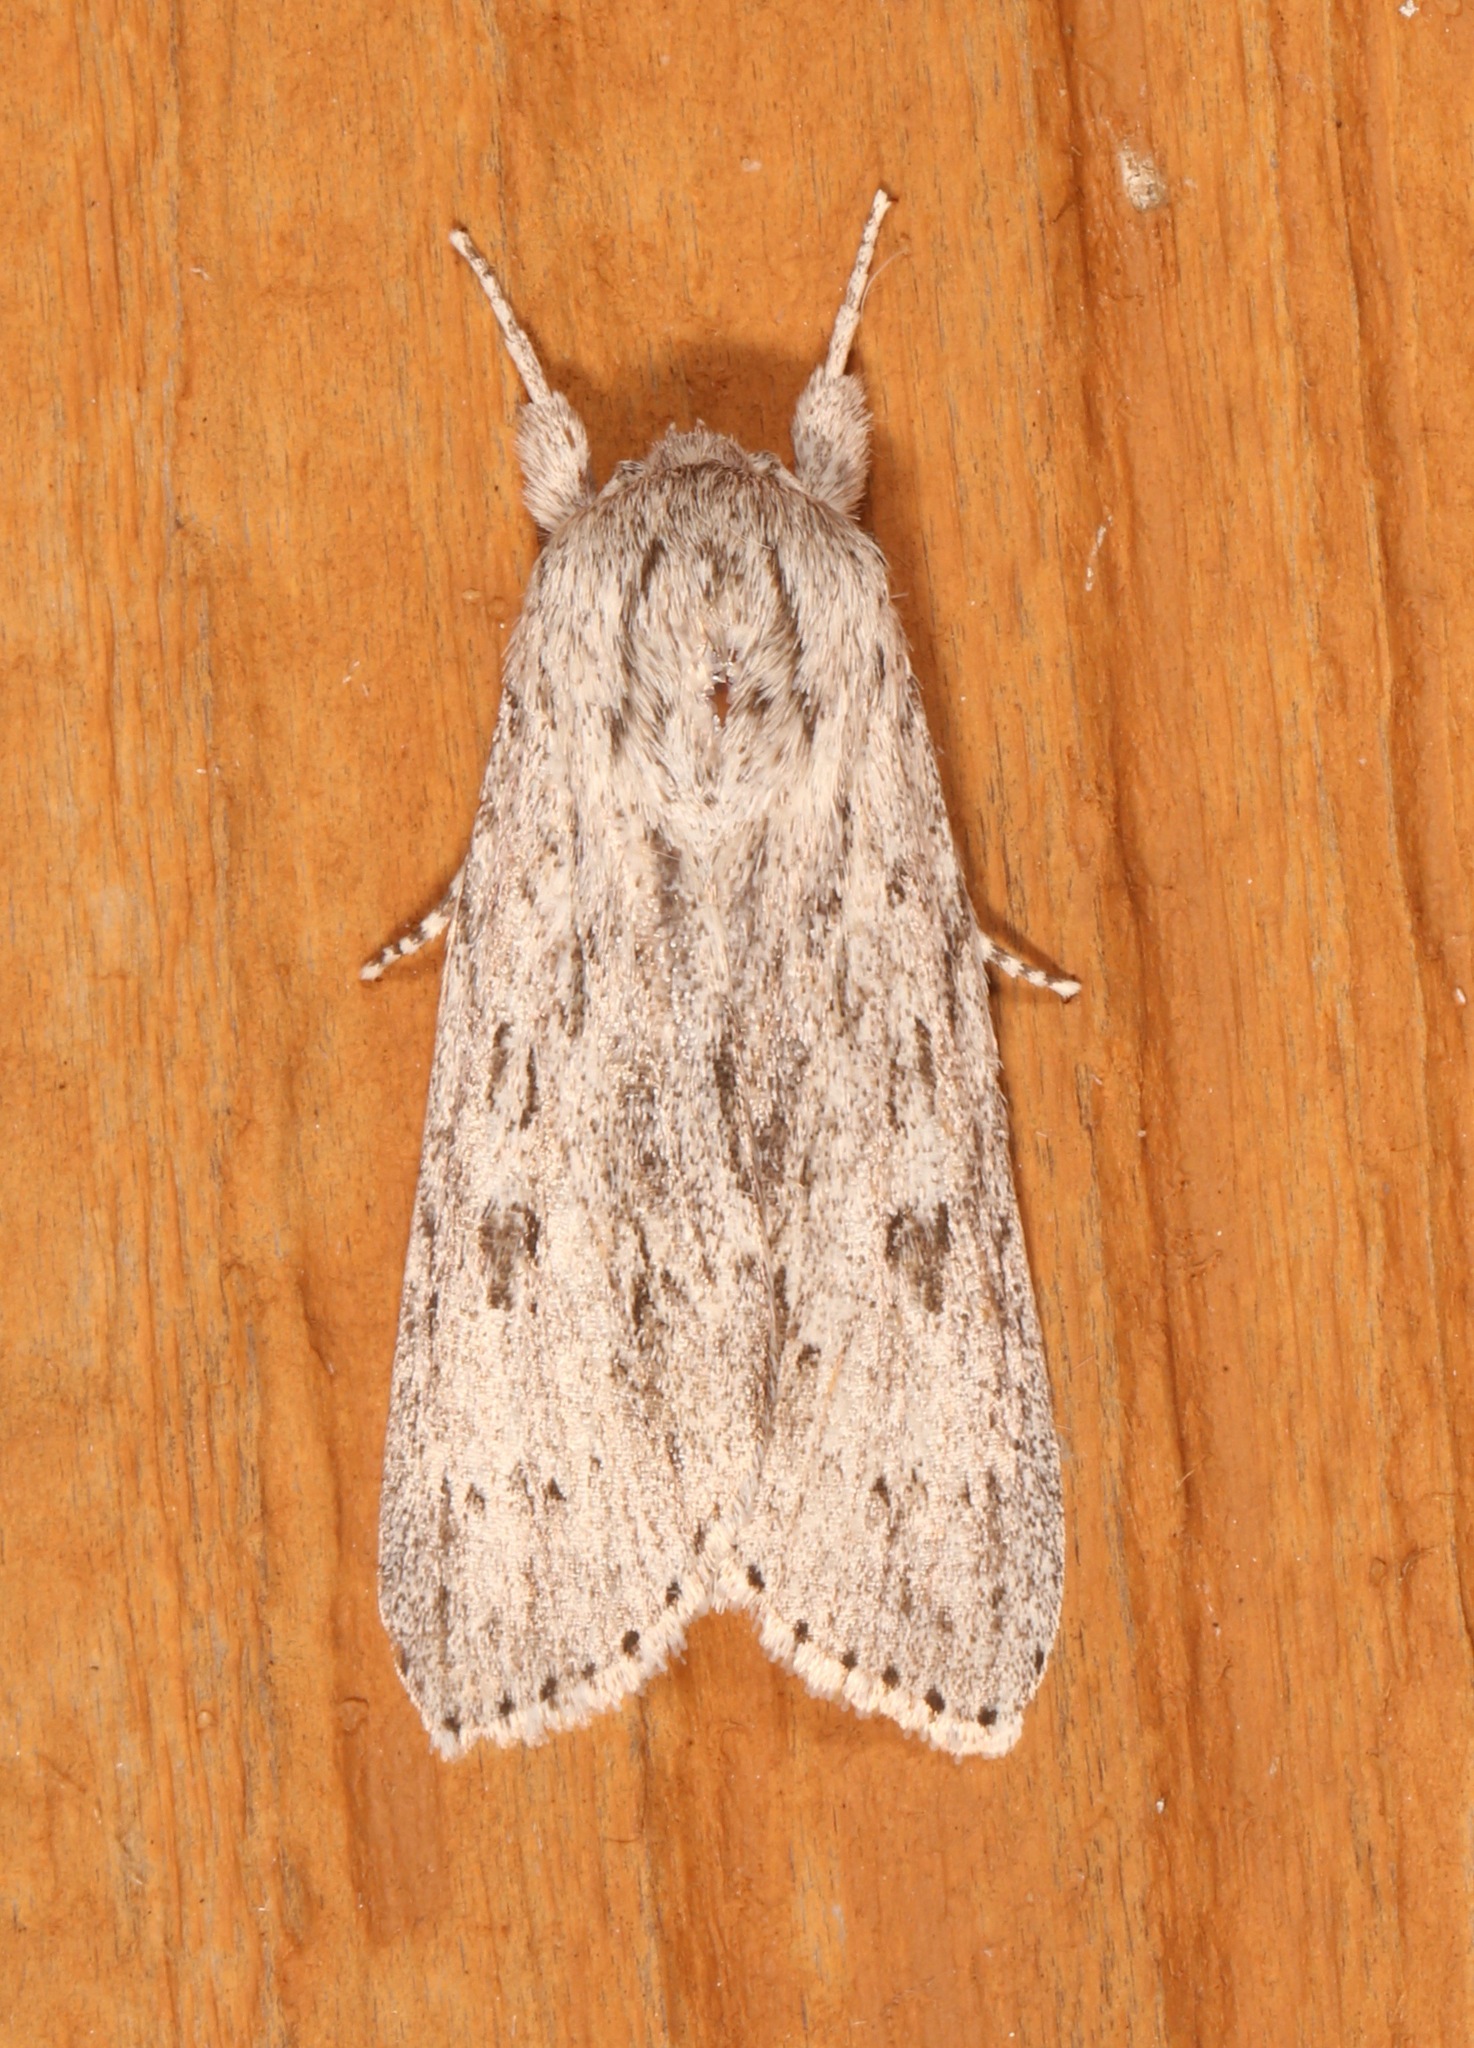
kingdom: Animalia
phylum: Arthropoda
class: Insecta
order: Lepidoptera
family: Noctuidae
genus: Acronicta
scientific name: Acronicta oblinita
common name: Smeared dagger
